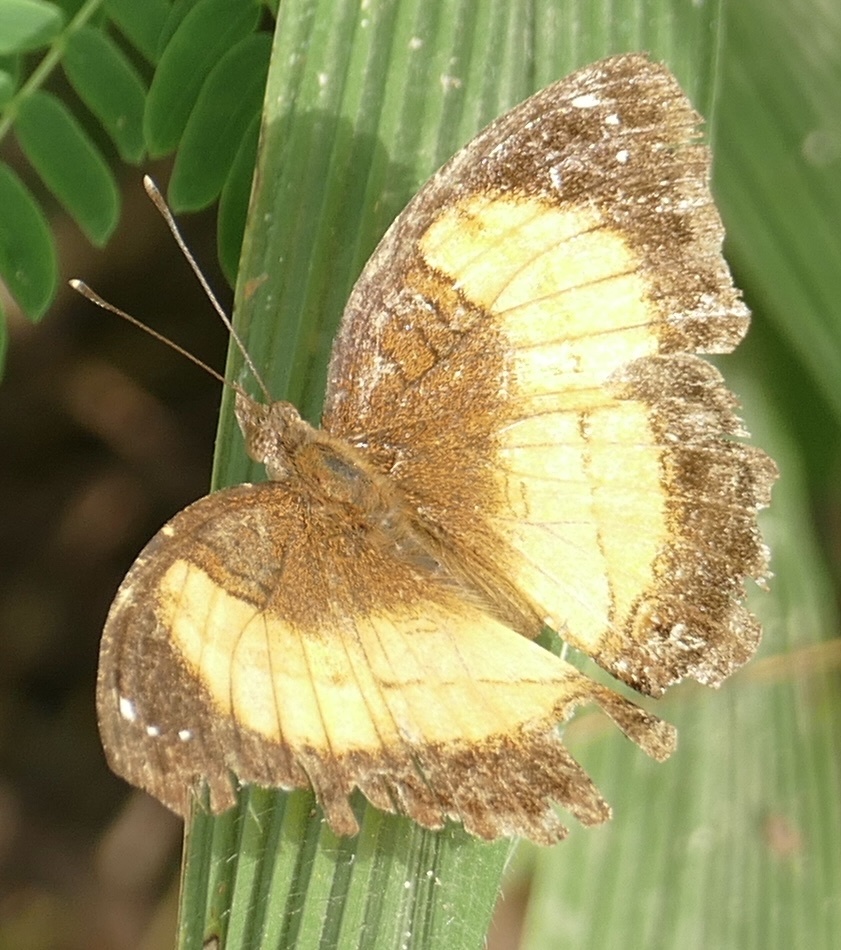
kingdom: Animalia
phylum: Arthropoda
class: Insecta
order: Lepidoptera
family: Nymphalidae
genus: Junonia
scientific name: Junonia terea
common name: Soldier pansy
